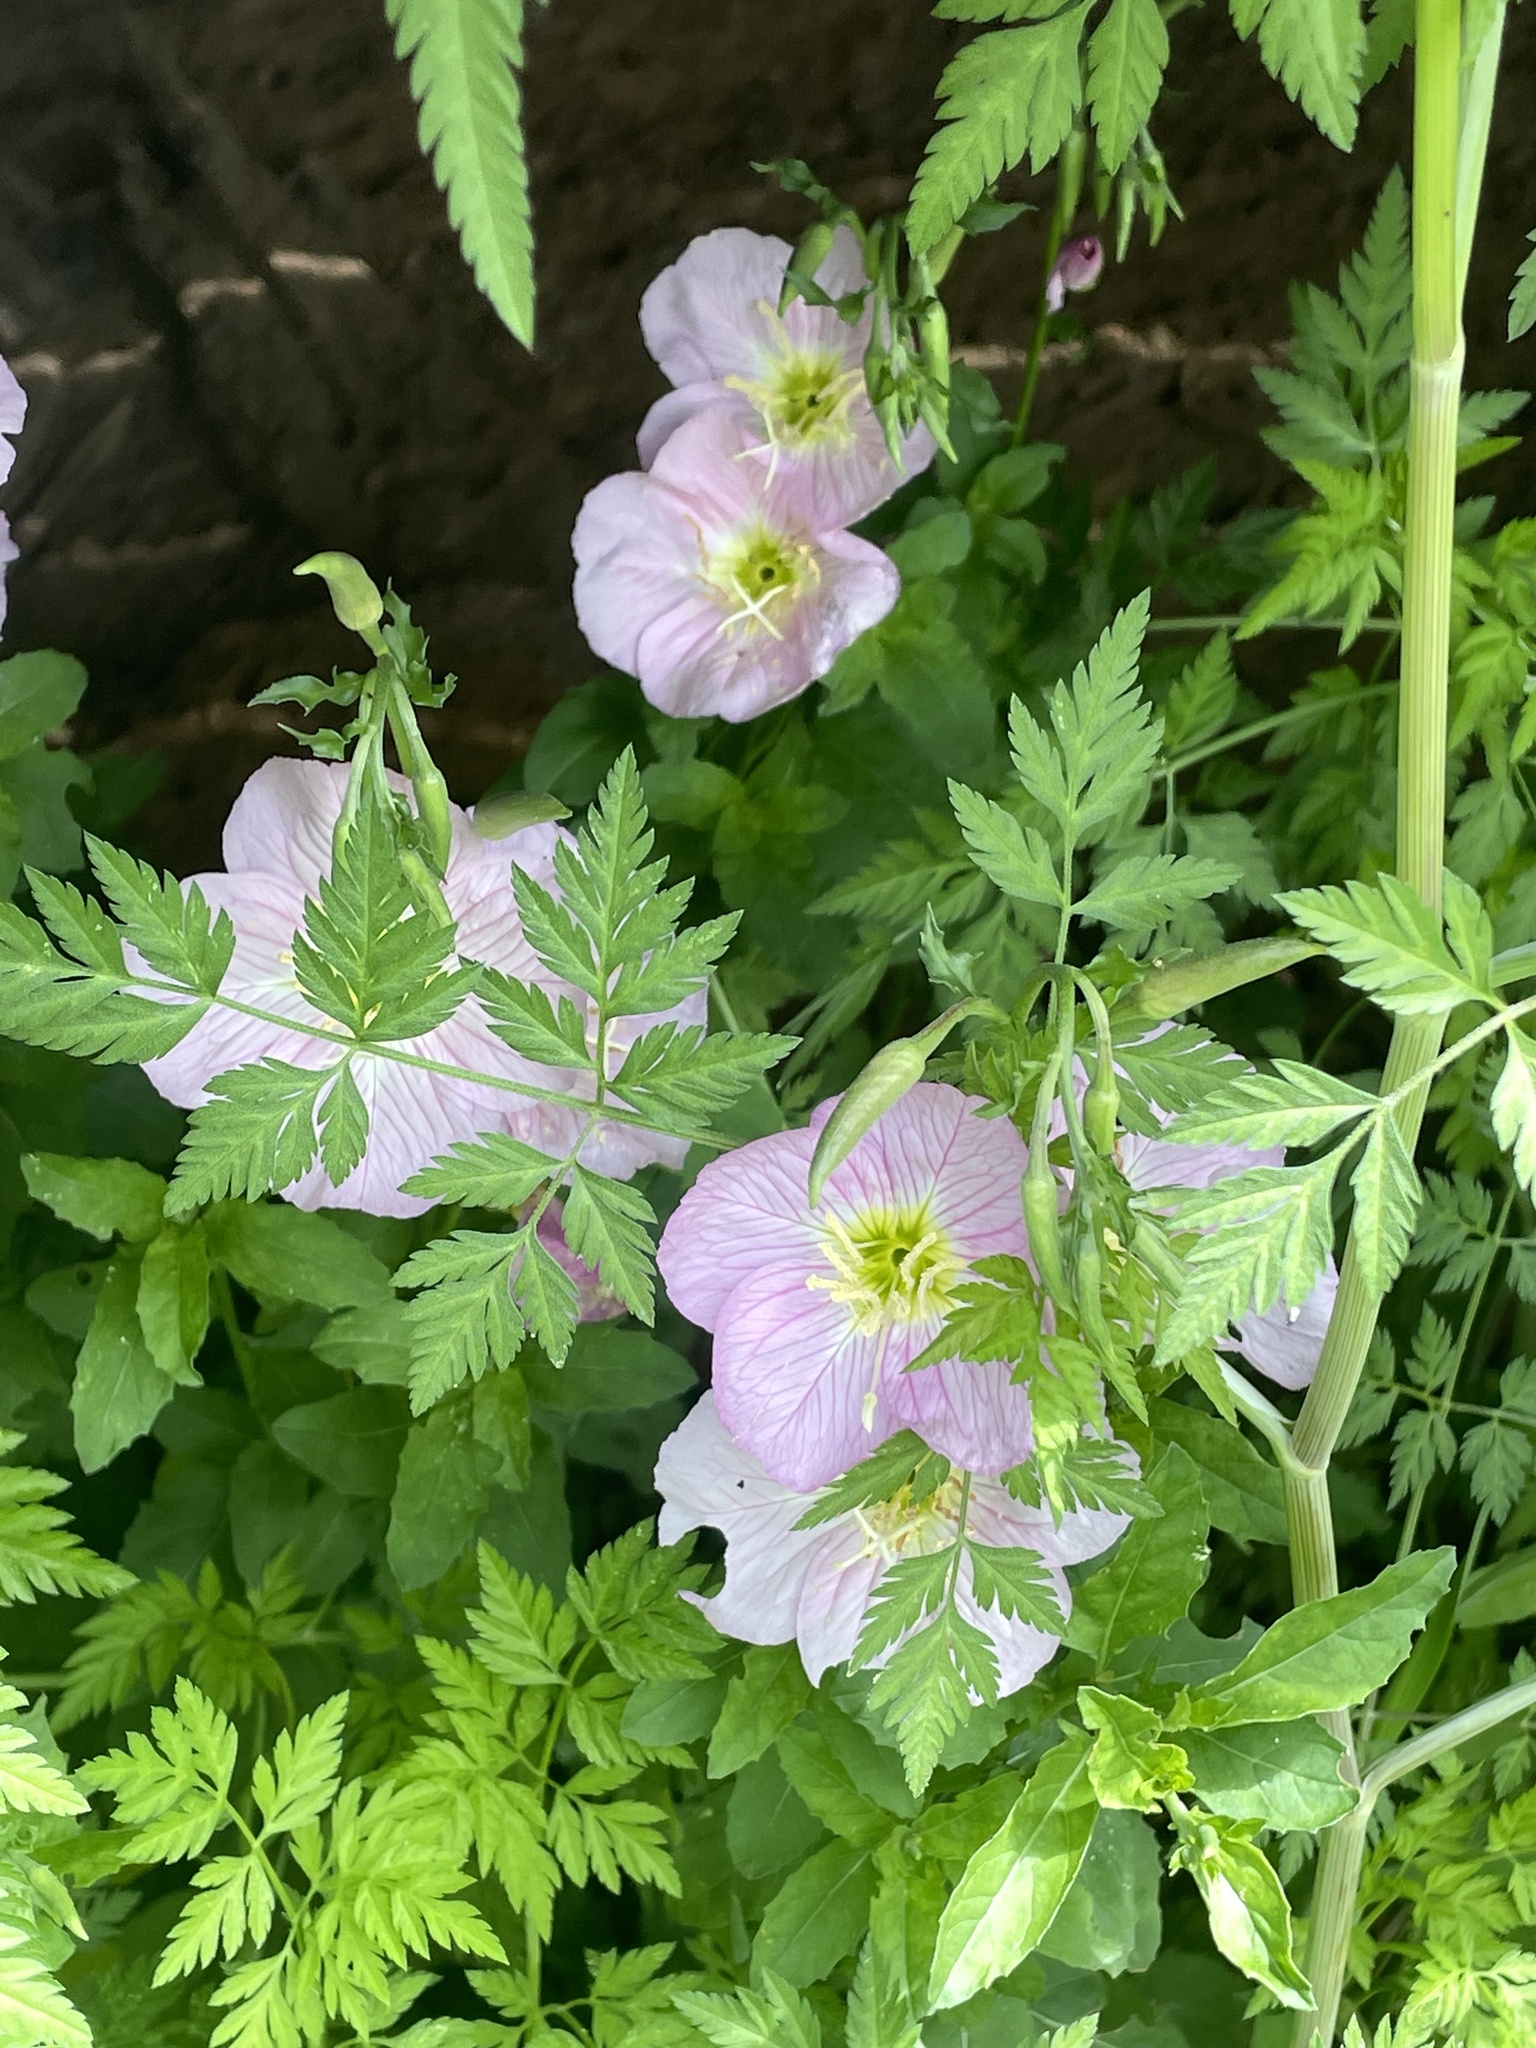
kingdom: Plantae
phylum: Tracheophyta
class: Magnoliopsida
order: Myrtales
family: Onagraceae
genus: Oenothera
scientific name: Oenothera speciosa
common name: White evening-primrose
